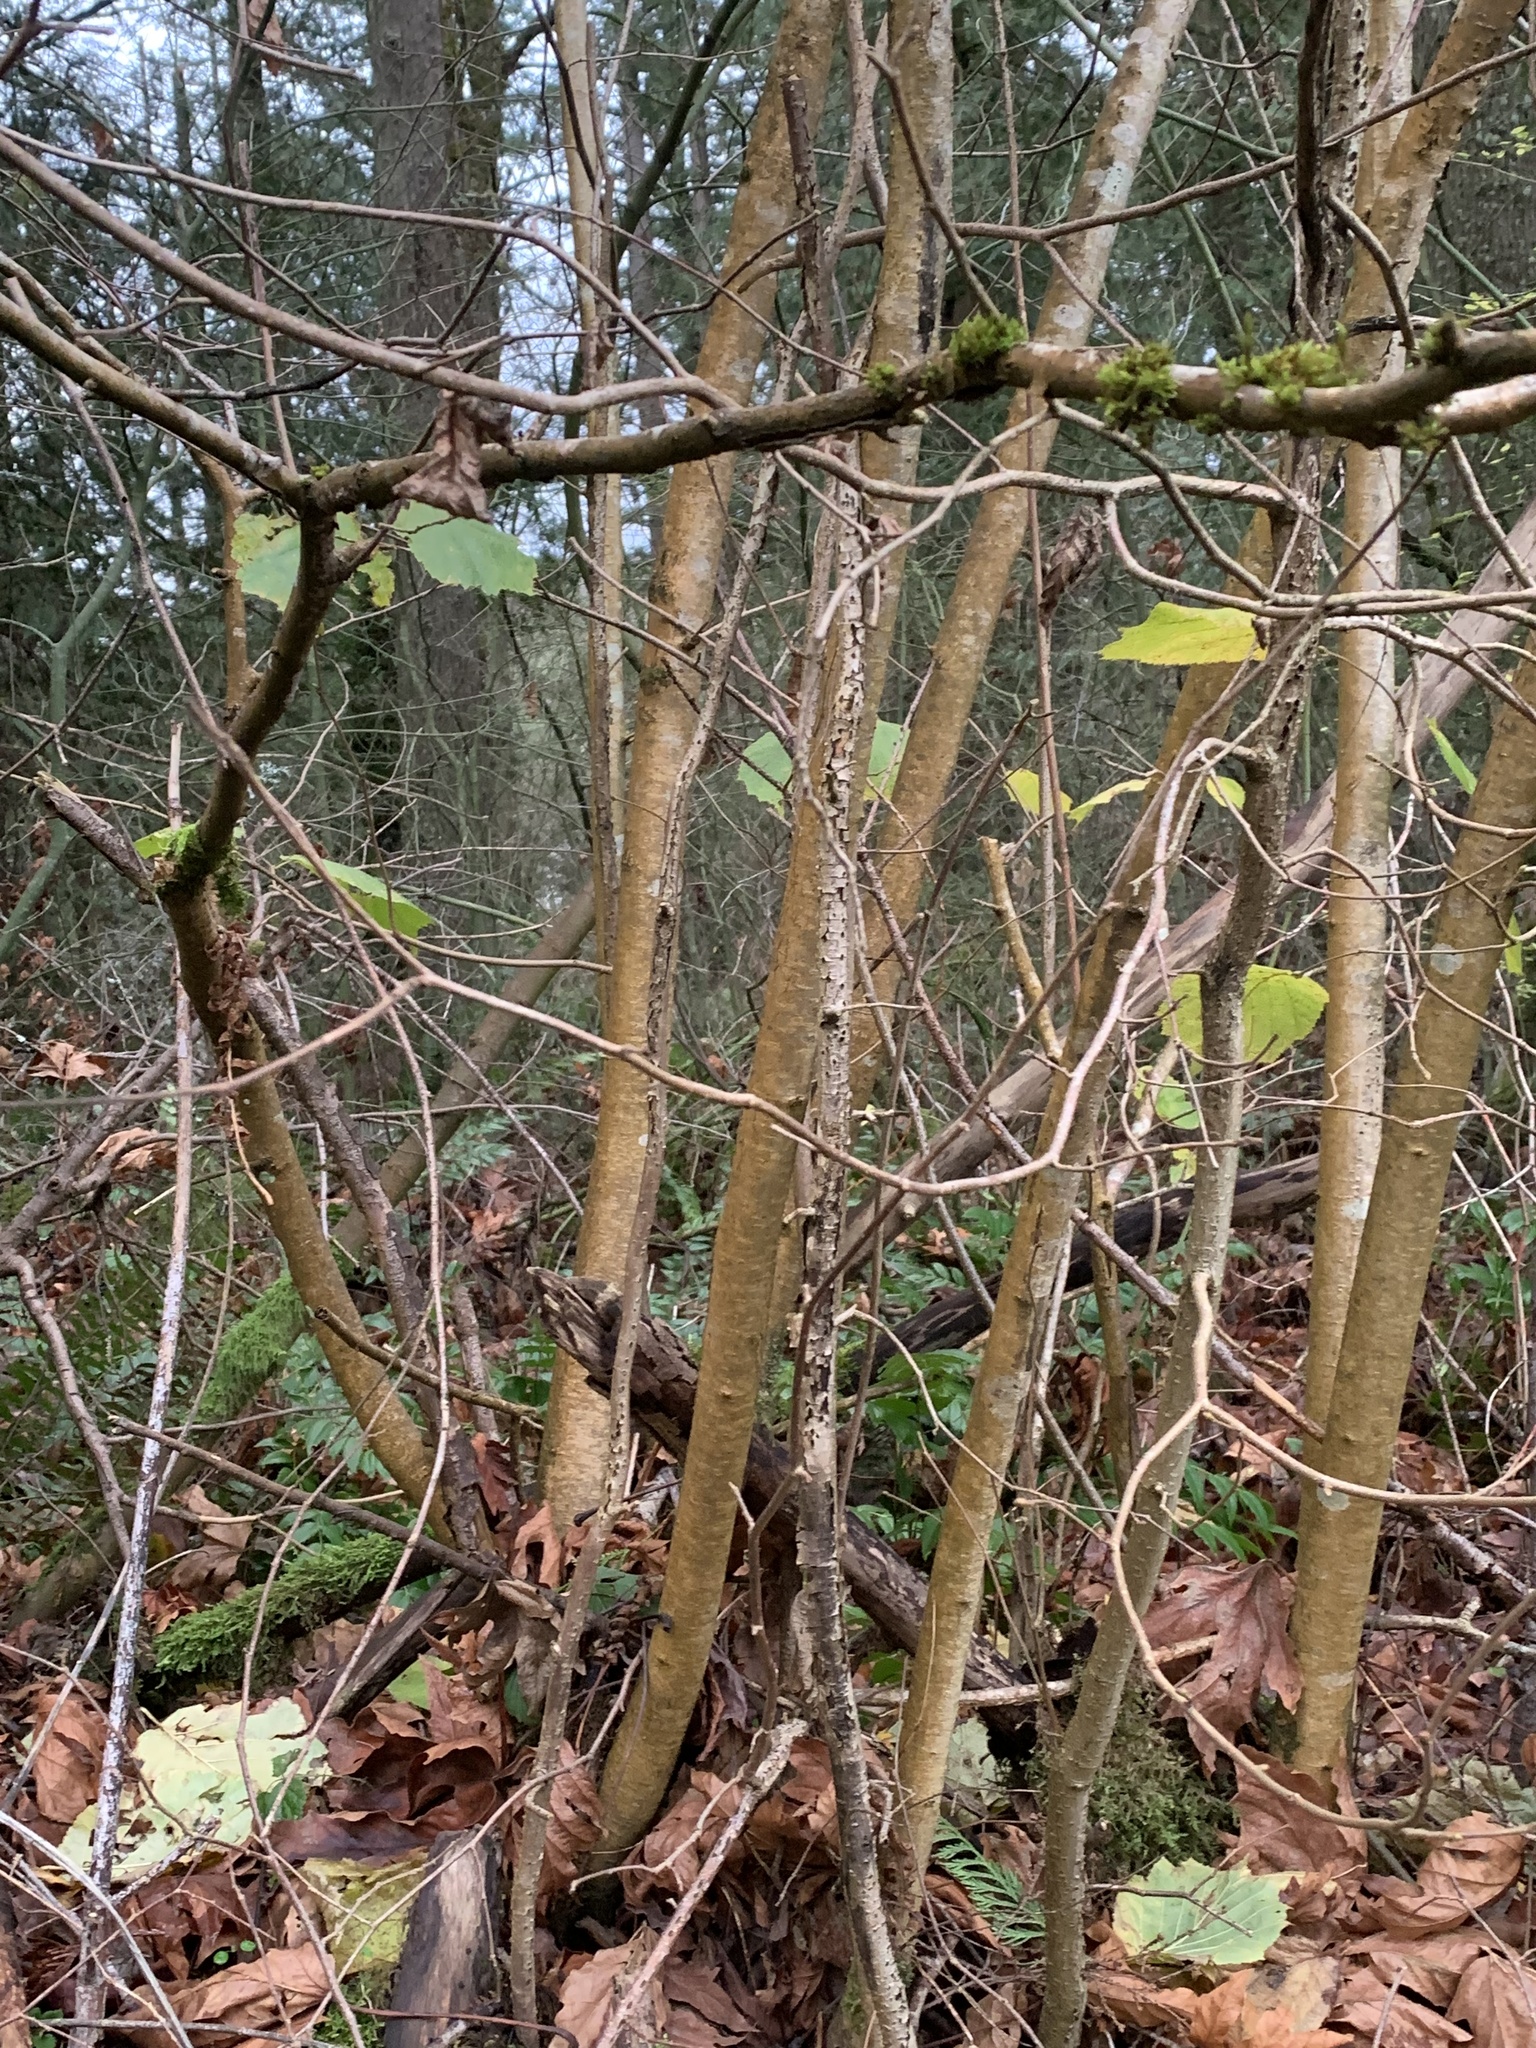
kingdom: Plantae
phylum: Tracheophyta
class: Magnoliopsida
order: Fagales
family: Betulaceae
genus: Corylus
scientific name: Corylus avellana
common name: European hazel
